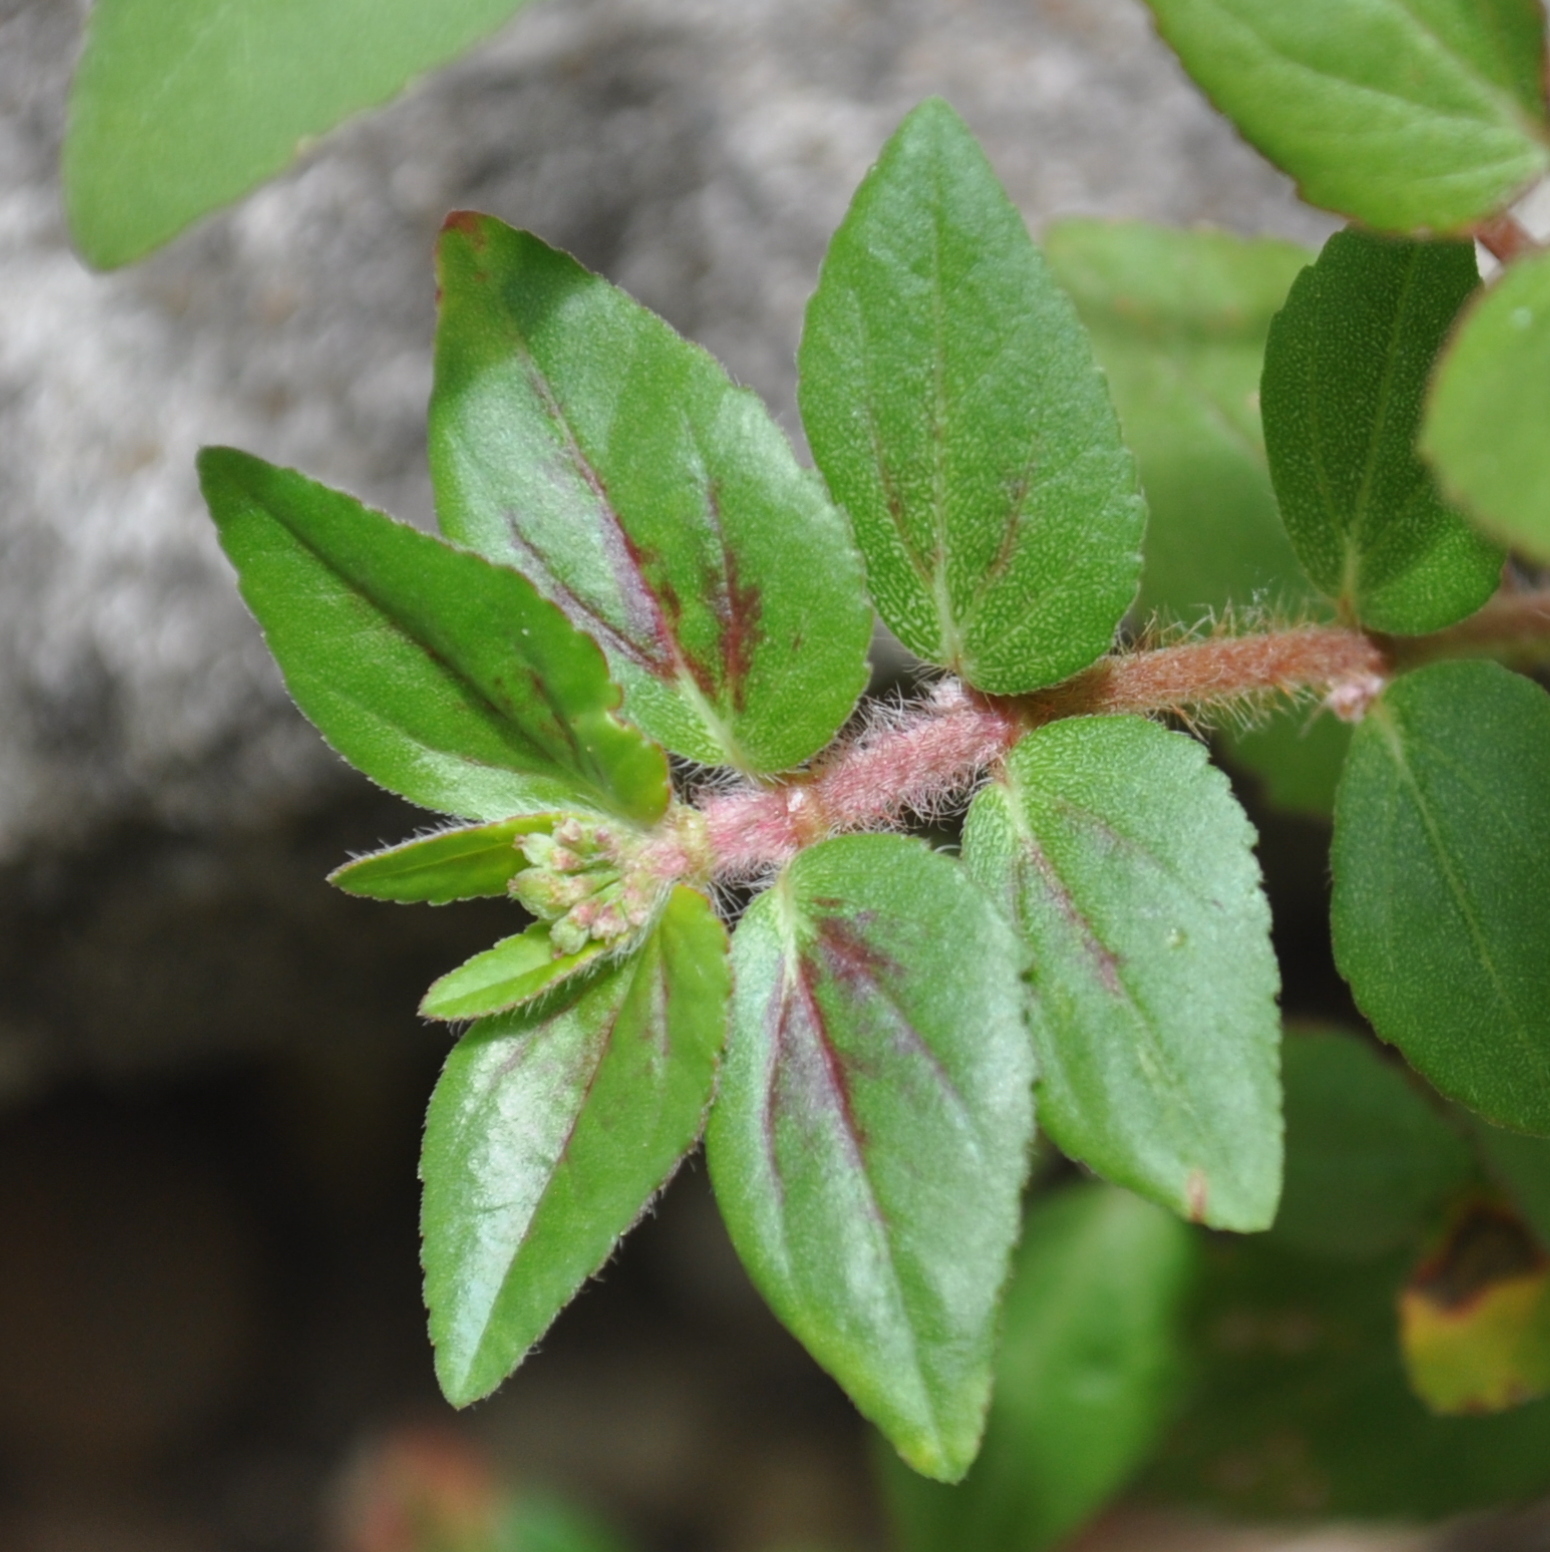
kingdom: Plantae
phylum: Tracheophyta
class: Magnoliopsida
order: Malpighiales
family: Euphorbiaceae
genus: Euphorbia
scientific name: Euphorbia hirta
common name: Pillpod sandmat
